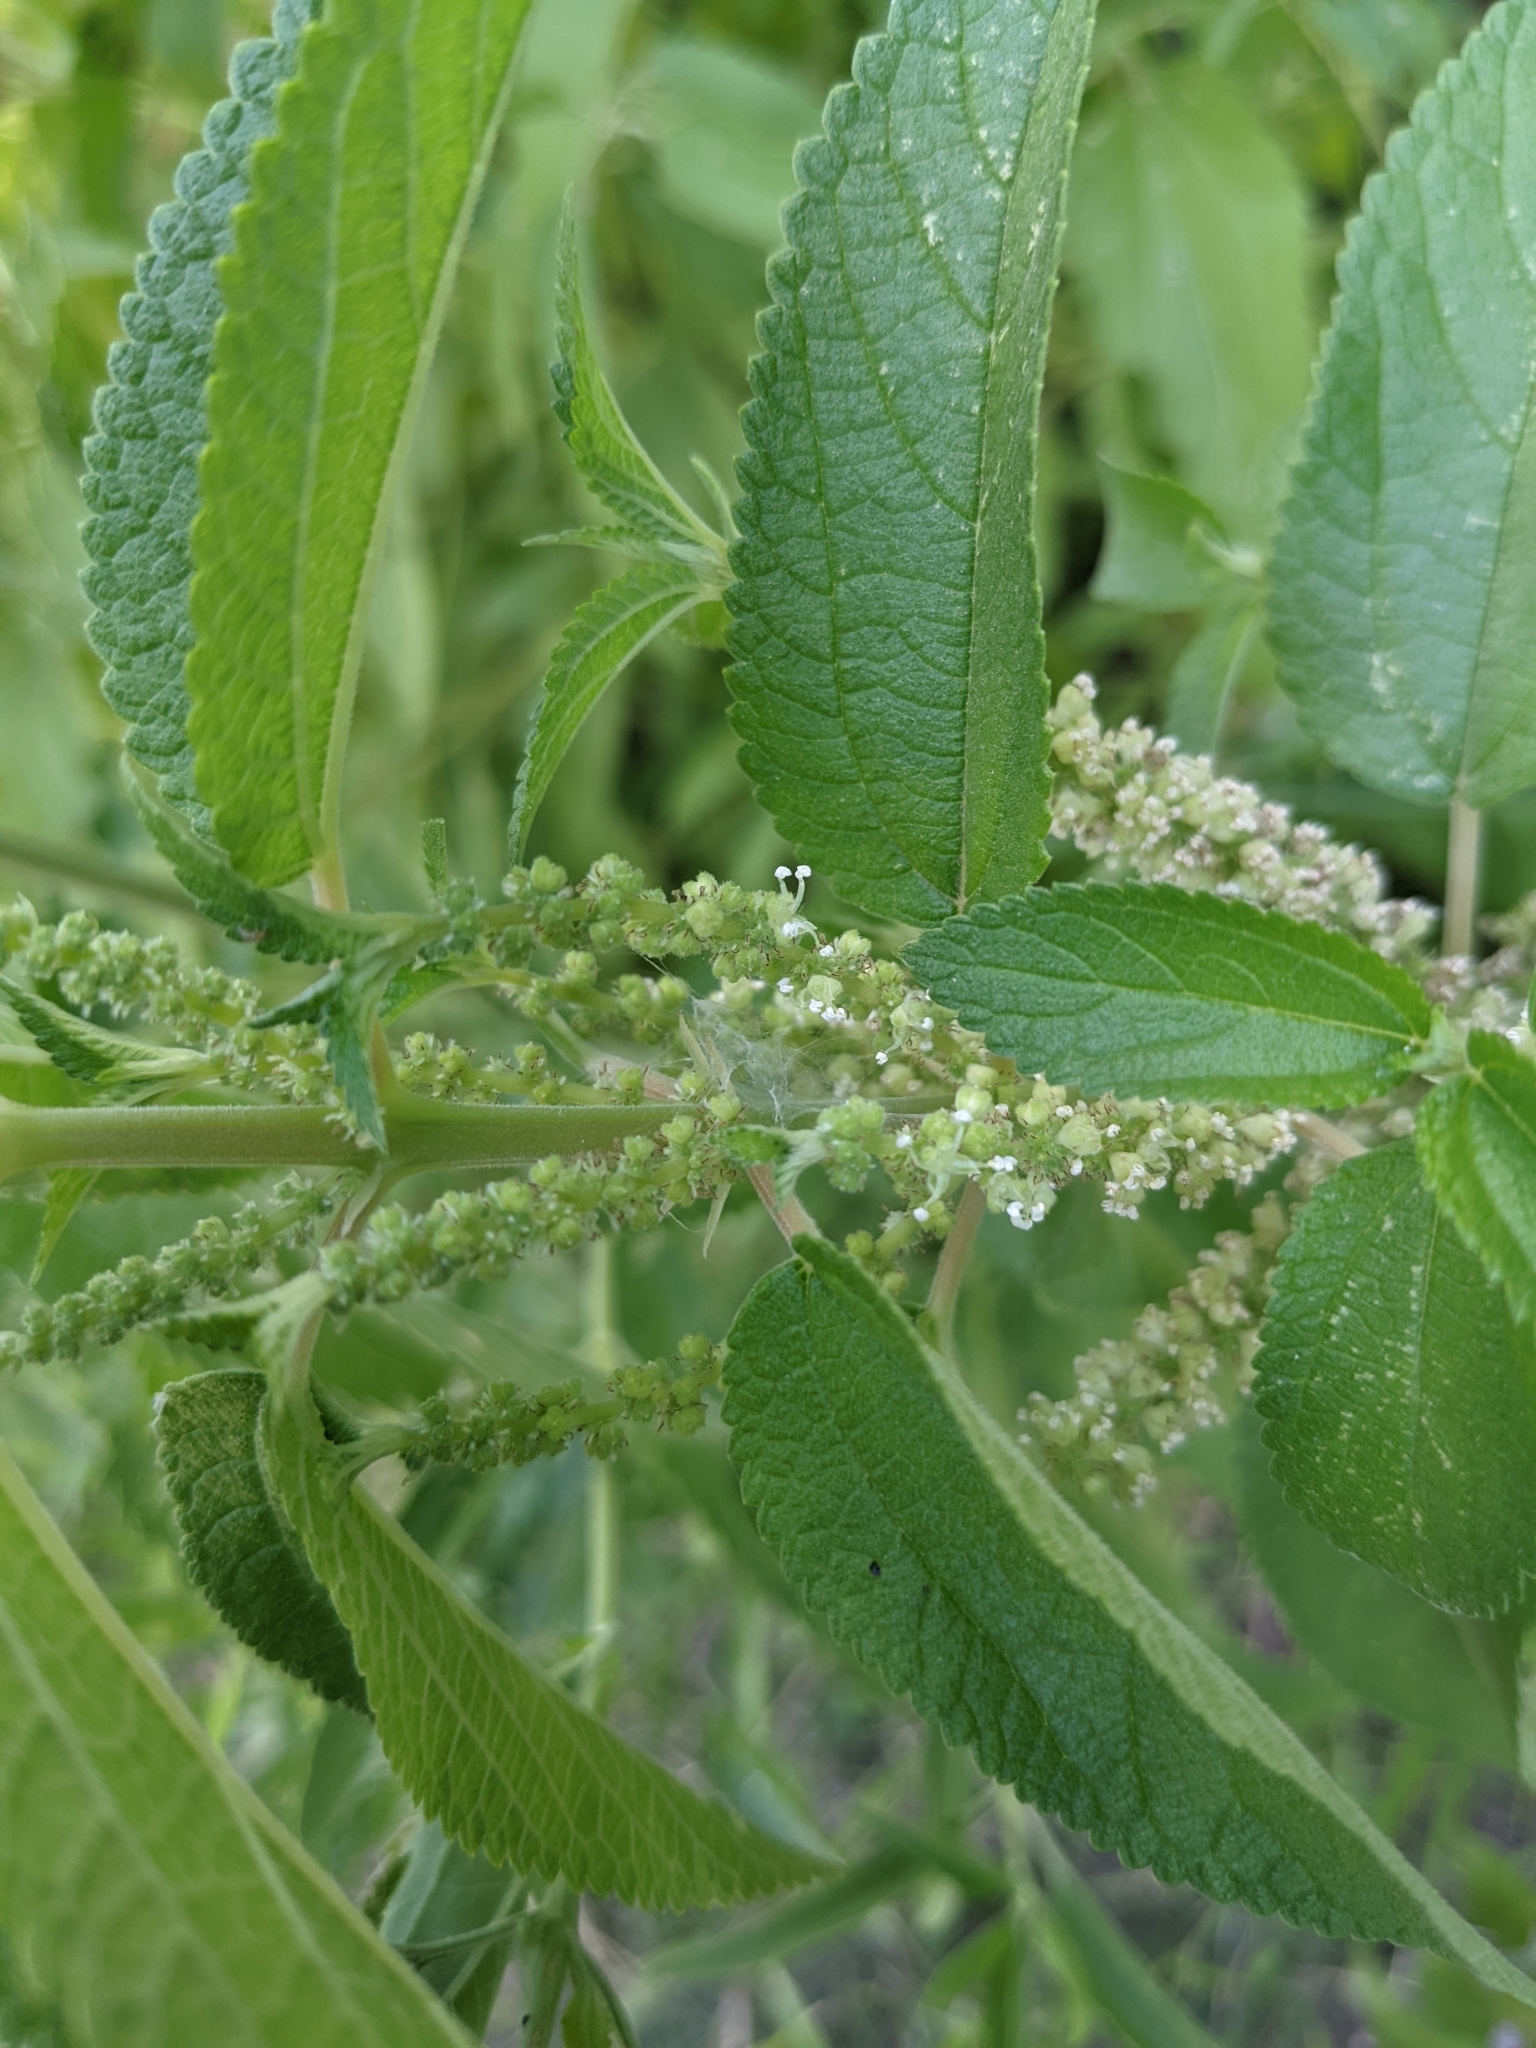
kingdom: Plantae
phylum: Tracheophyta
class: Magnoliopsida
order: Rosales
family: Urticaceae
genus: Boehmeria
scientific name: Boehmeria cylindrica
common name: Bog-hemp
